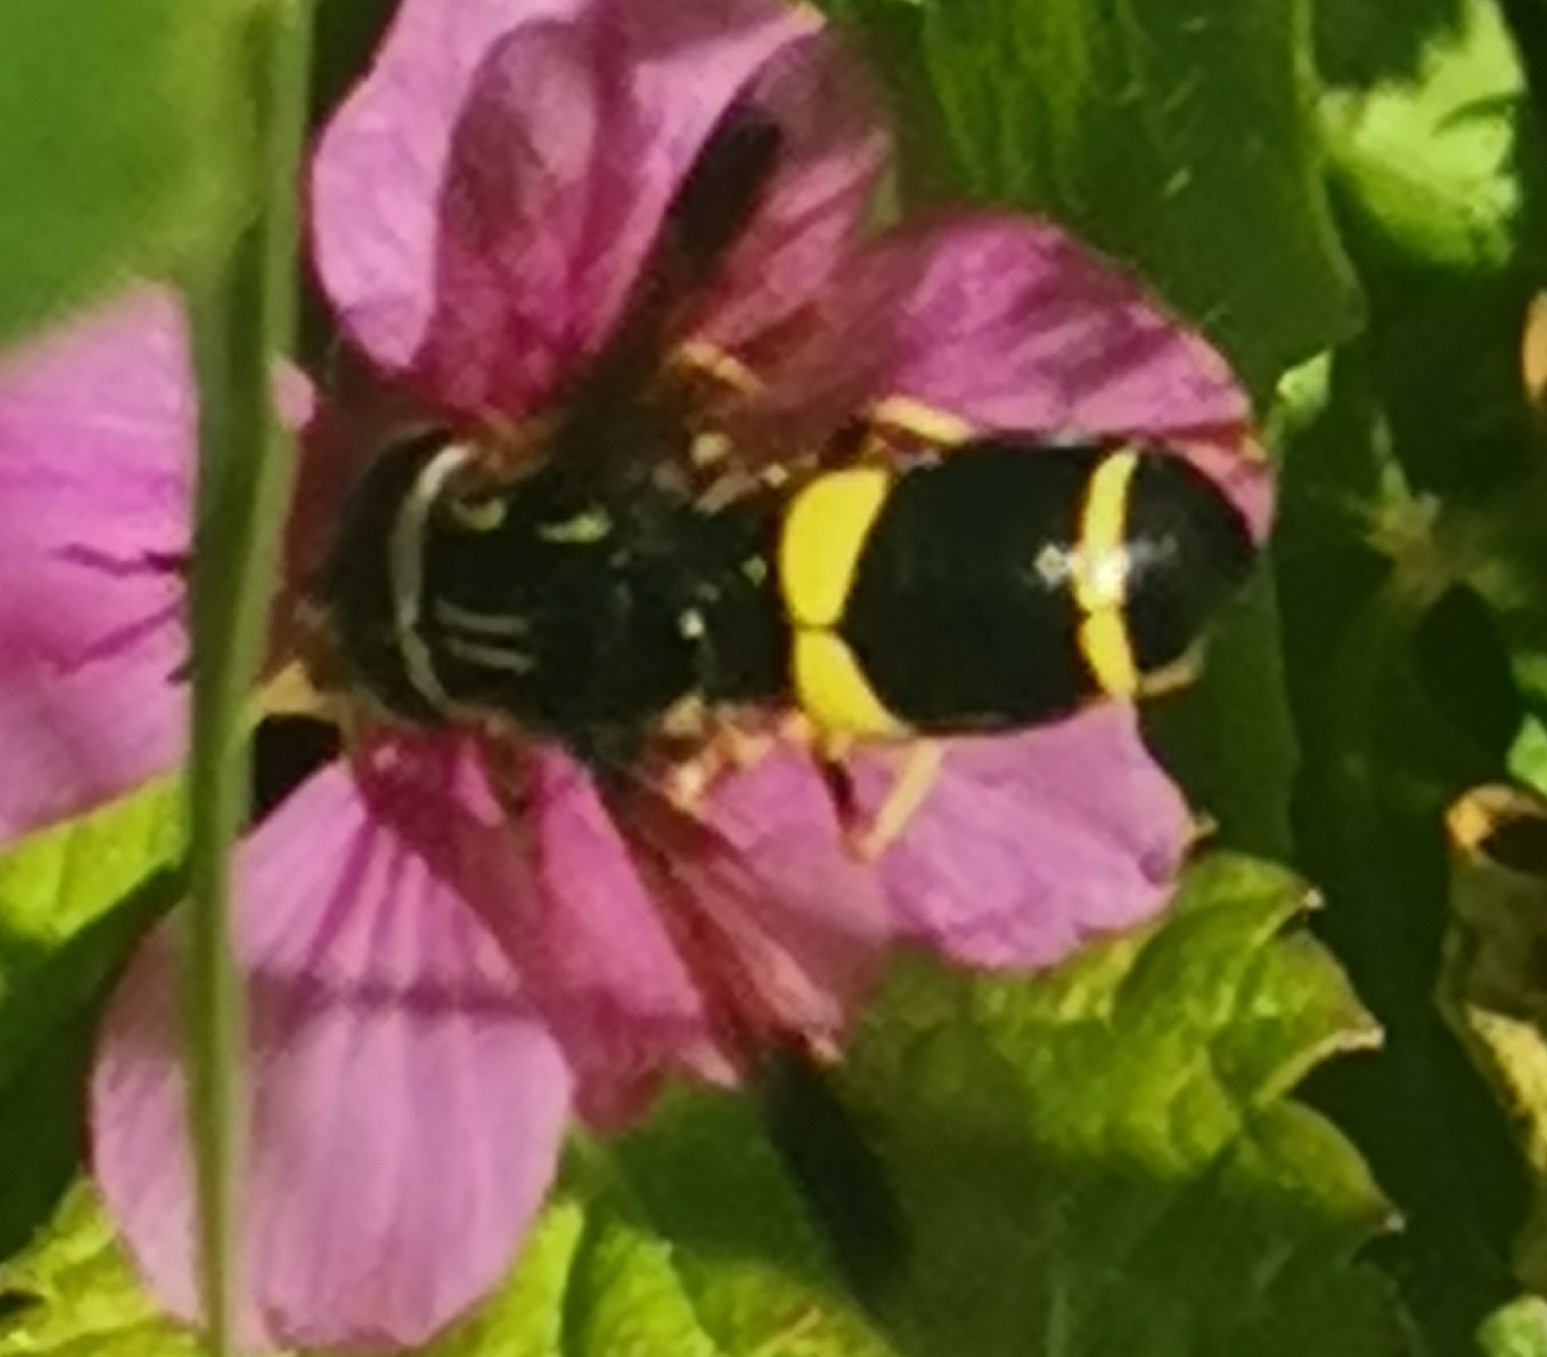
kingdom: Animalia
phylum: Arthropoda
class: Insecta
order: Diptera
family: Syrphidae
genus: Chrysotoxum
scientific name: Chrysotoxum bicincta
